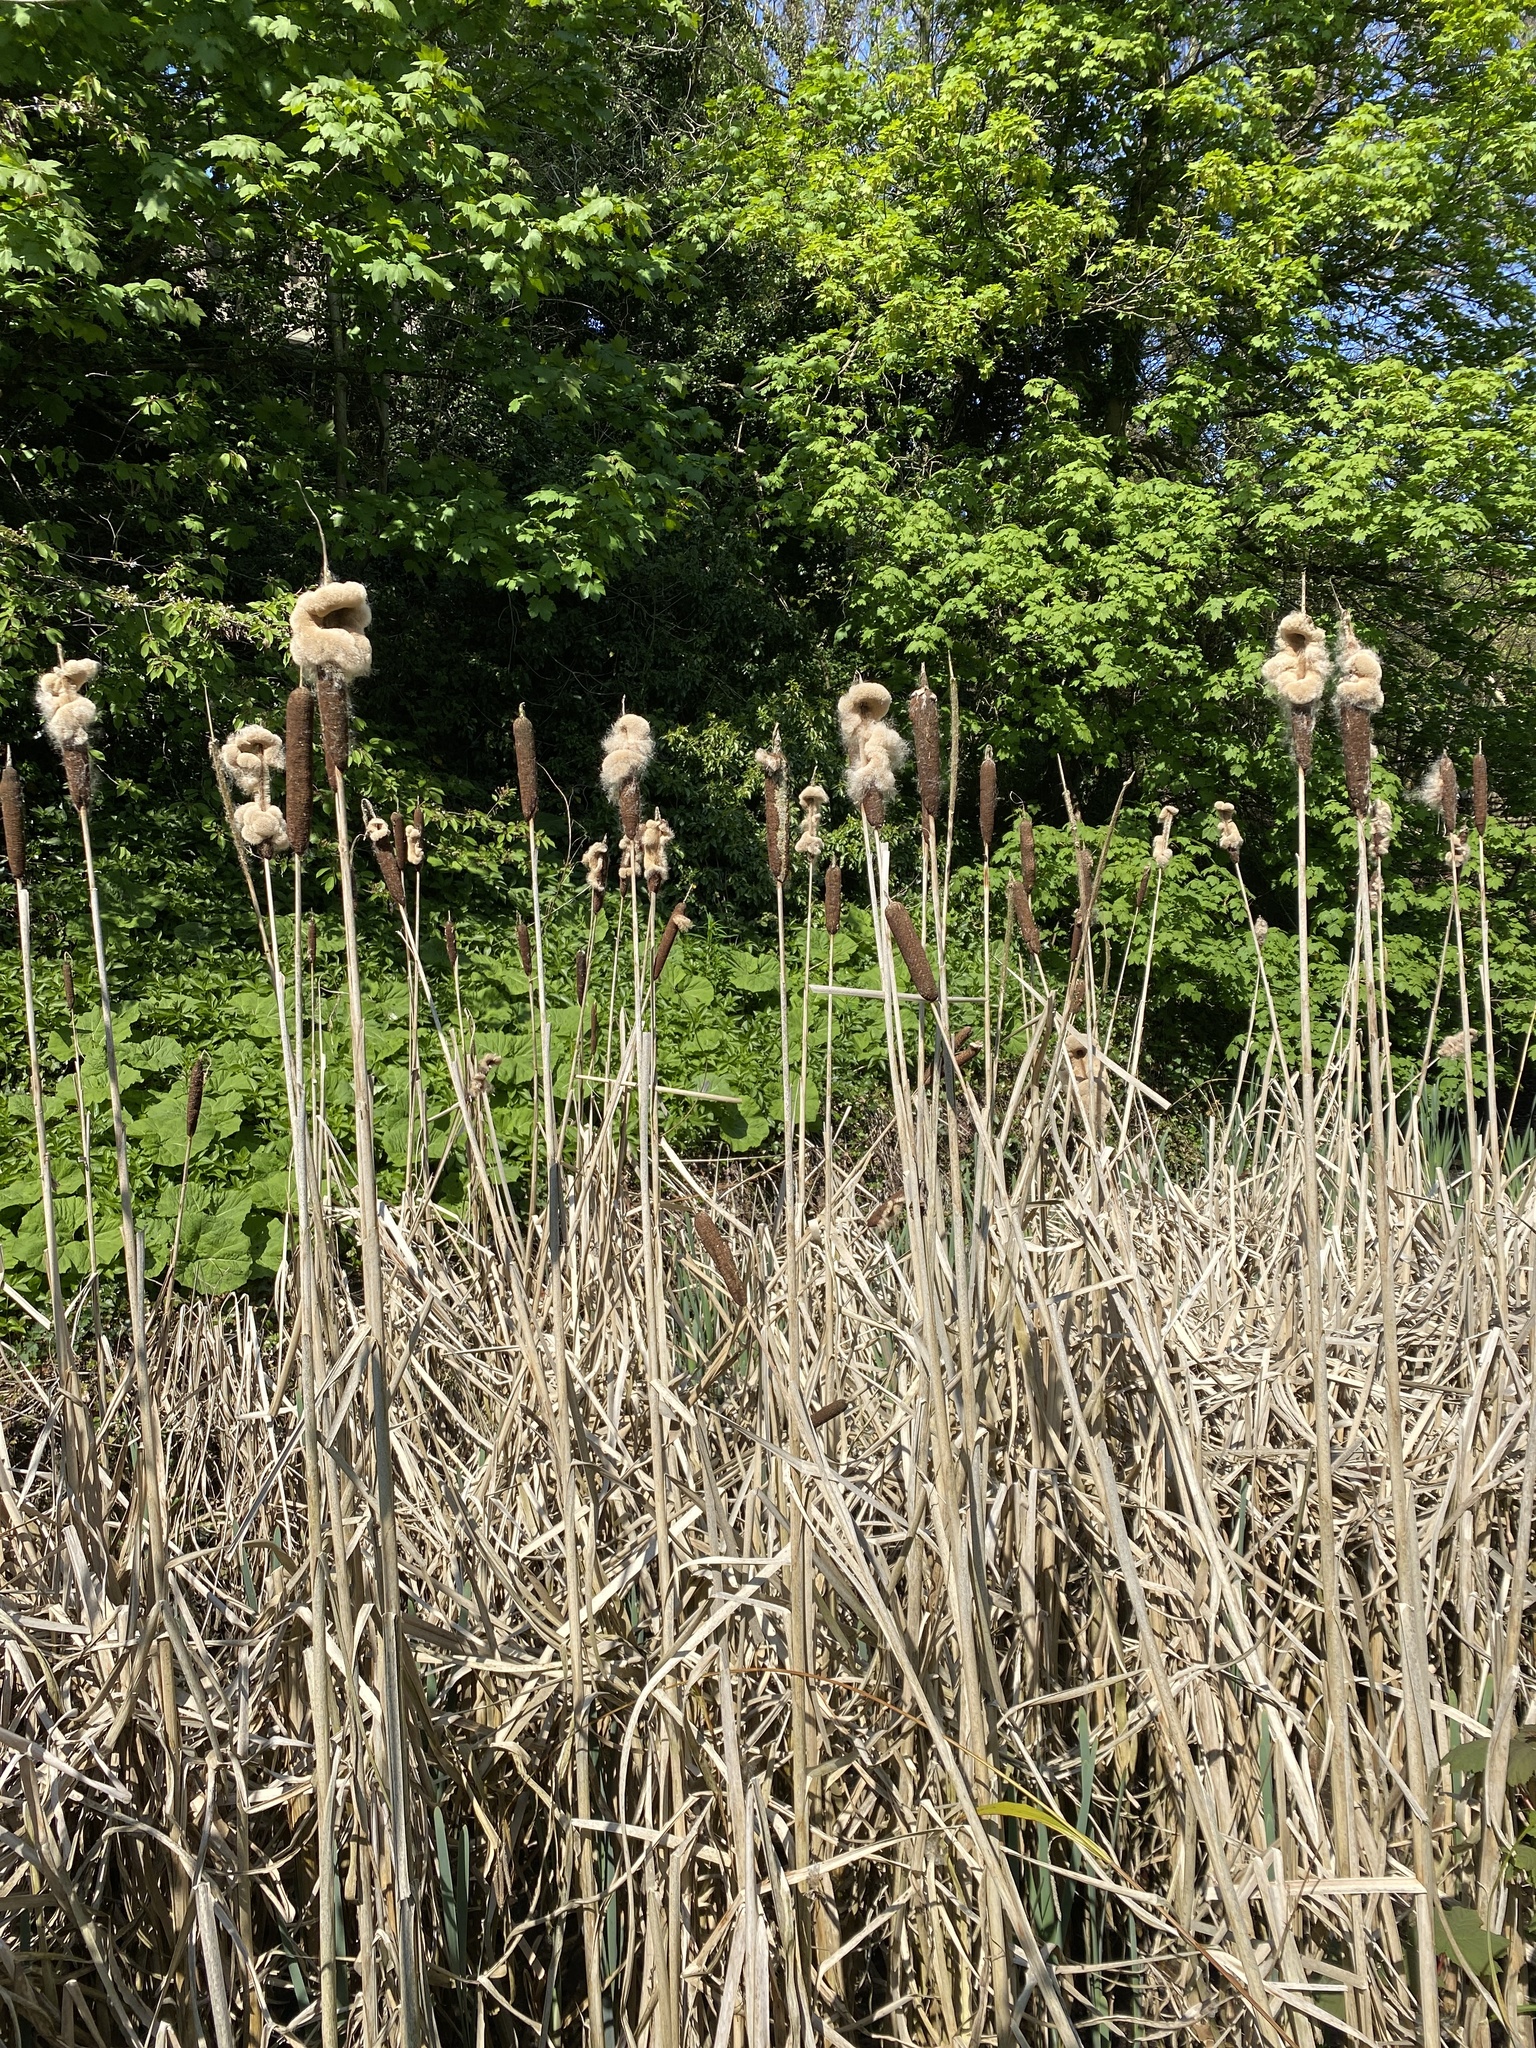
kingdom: Plantae
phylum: Tracheophyta
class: Liliopsida
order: Poales
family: Typhaceae
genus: Typha
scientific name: Typha latifolia
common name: Broadleaf cattail
